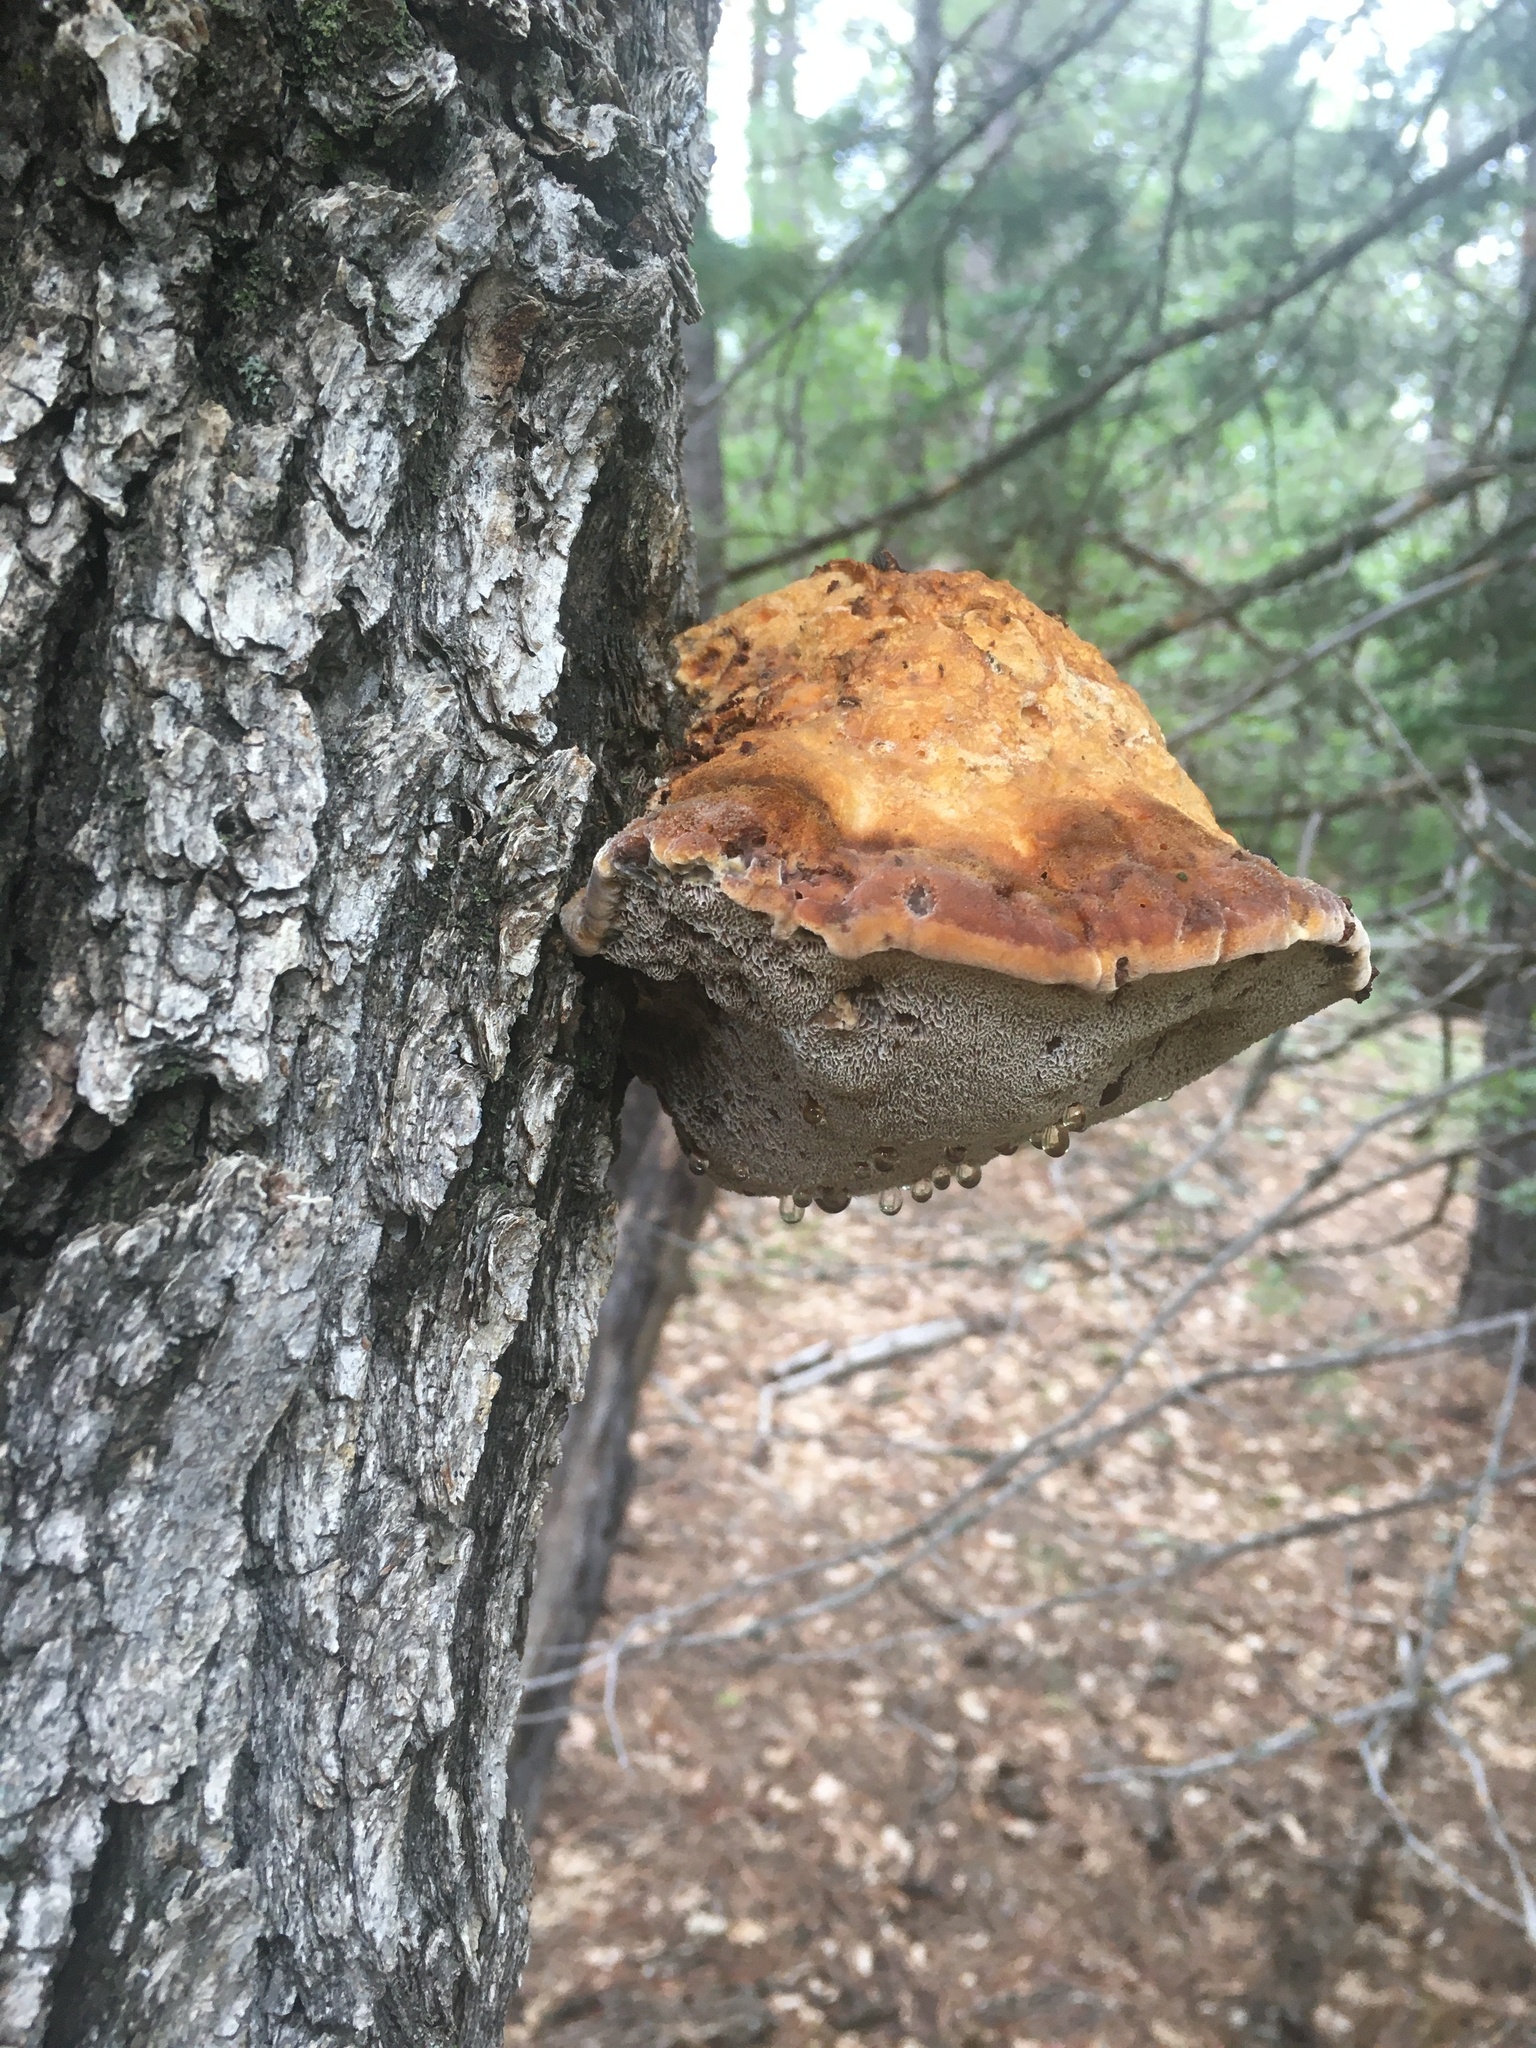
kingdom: Fungi
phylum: Basidiomycota
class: Agaricomycetes
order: Hymenochaetales
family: Hymenochaetaceae
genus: Inocutis
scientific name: Inocutis dryophila
